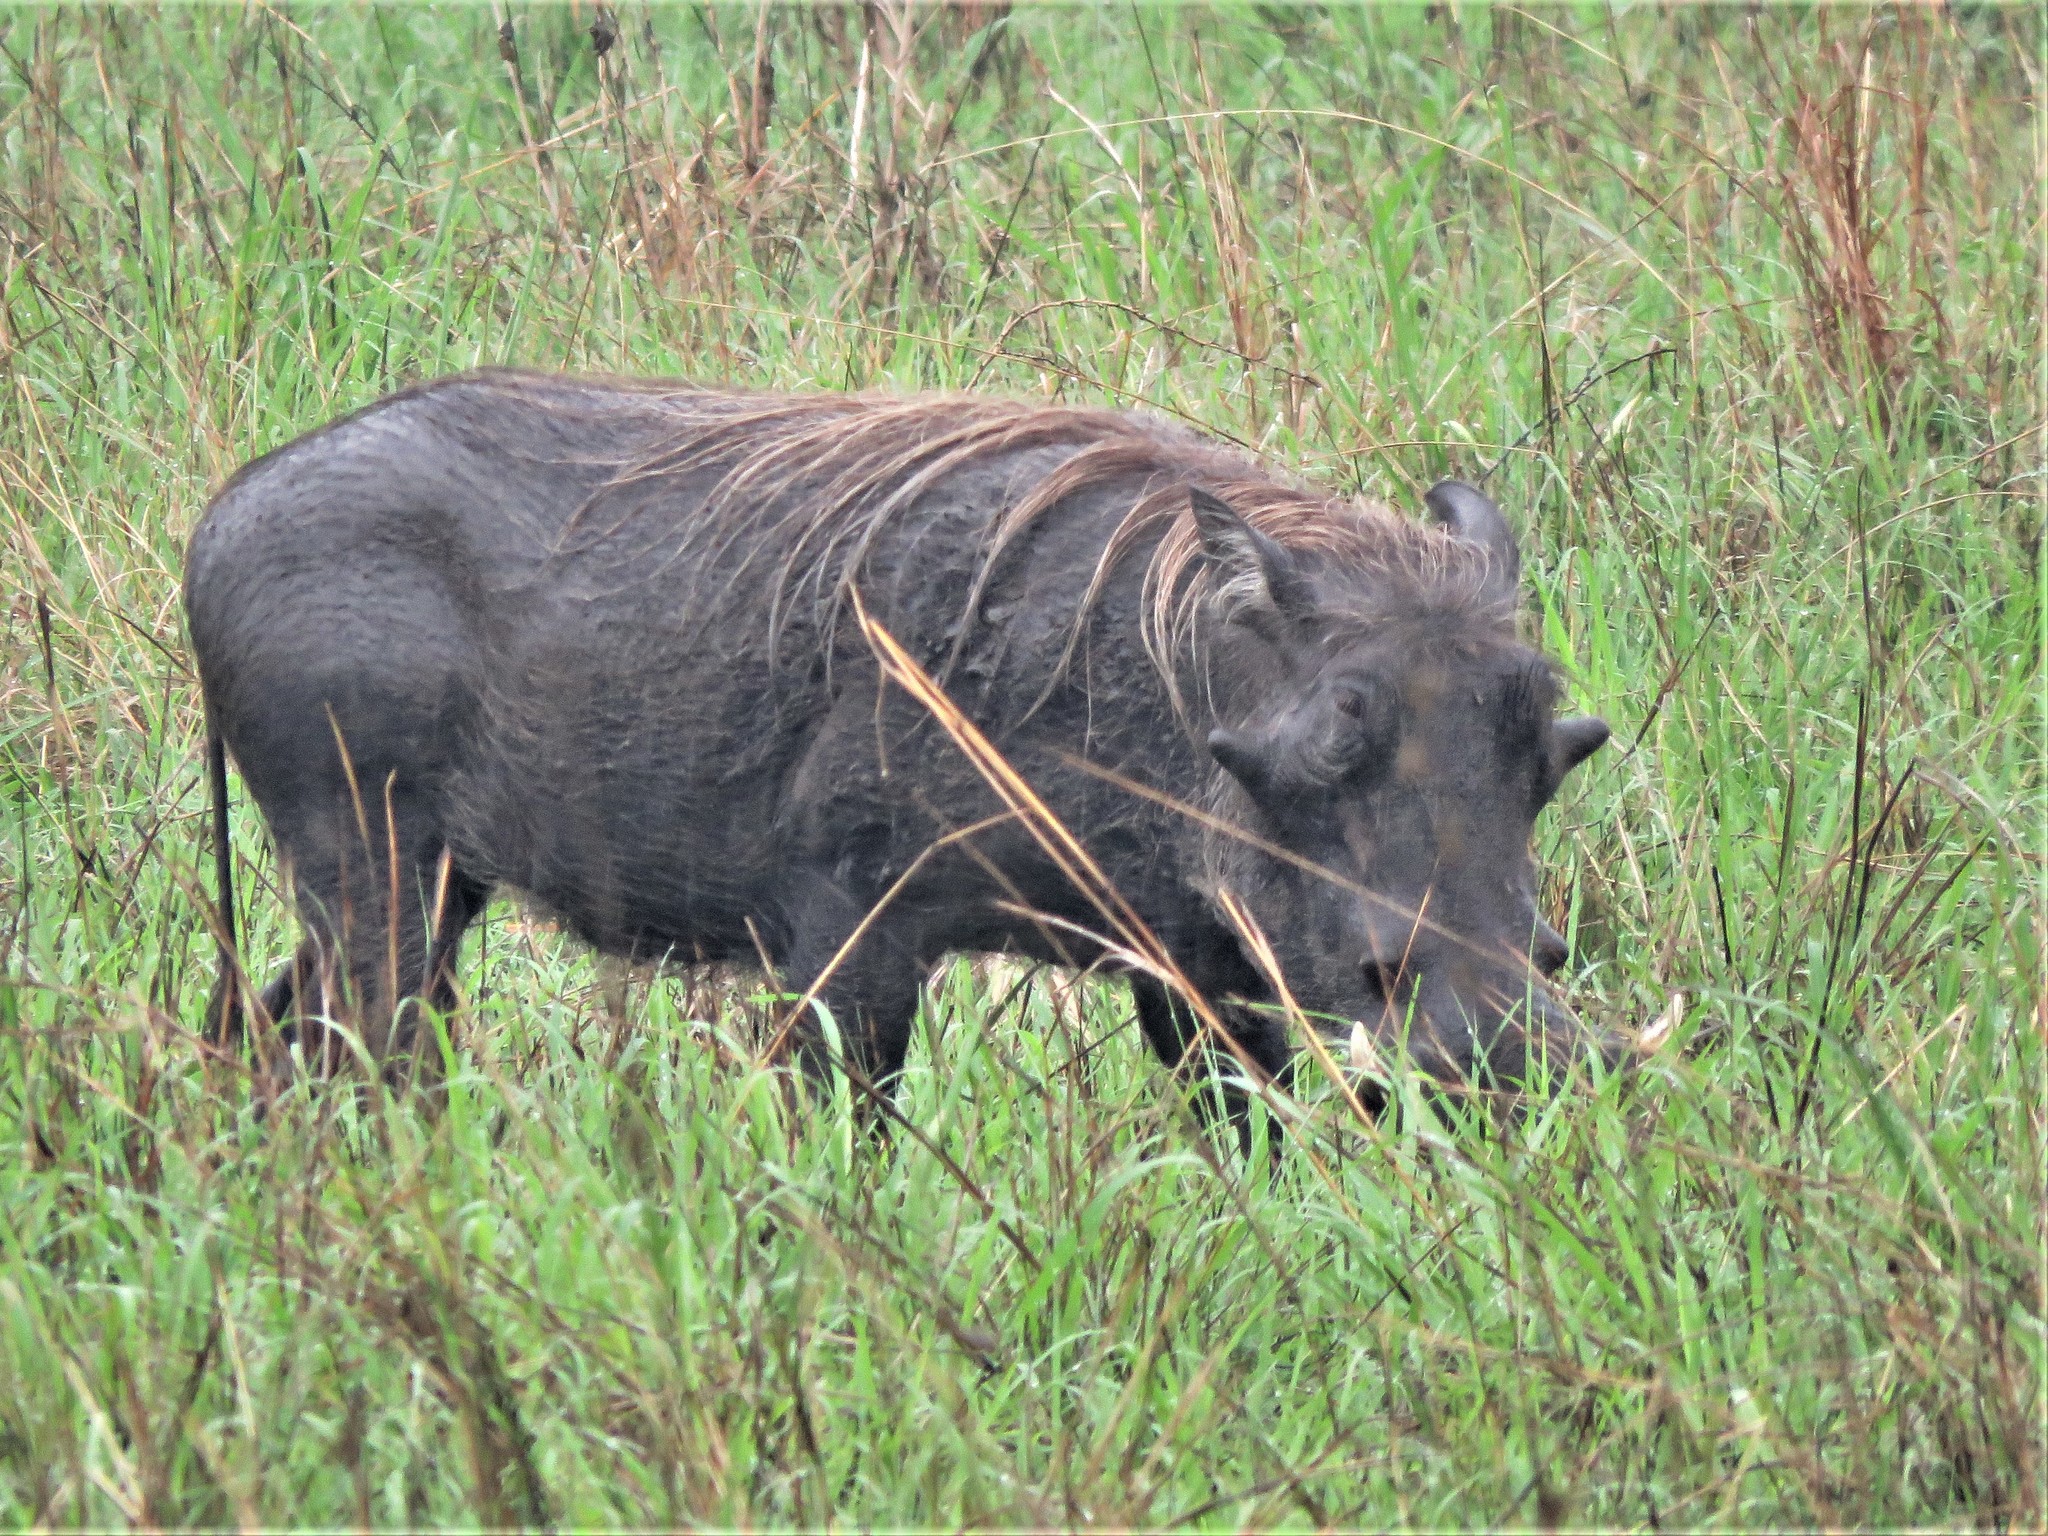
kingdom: Animalia
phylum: Chordata
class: Mammalia
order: Artiodactyla
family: Suidae
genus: Phacochoerus
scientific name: Phacochoerus africanus
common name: Common warthog
